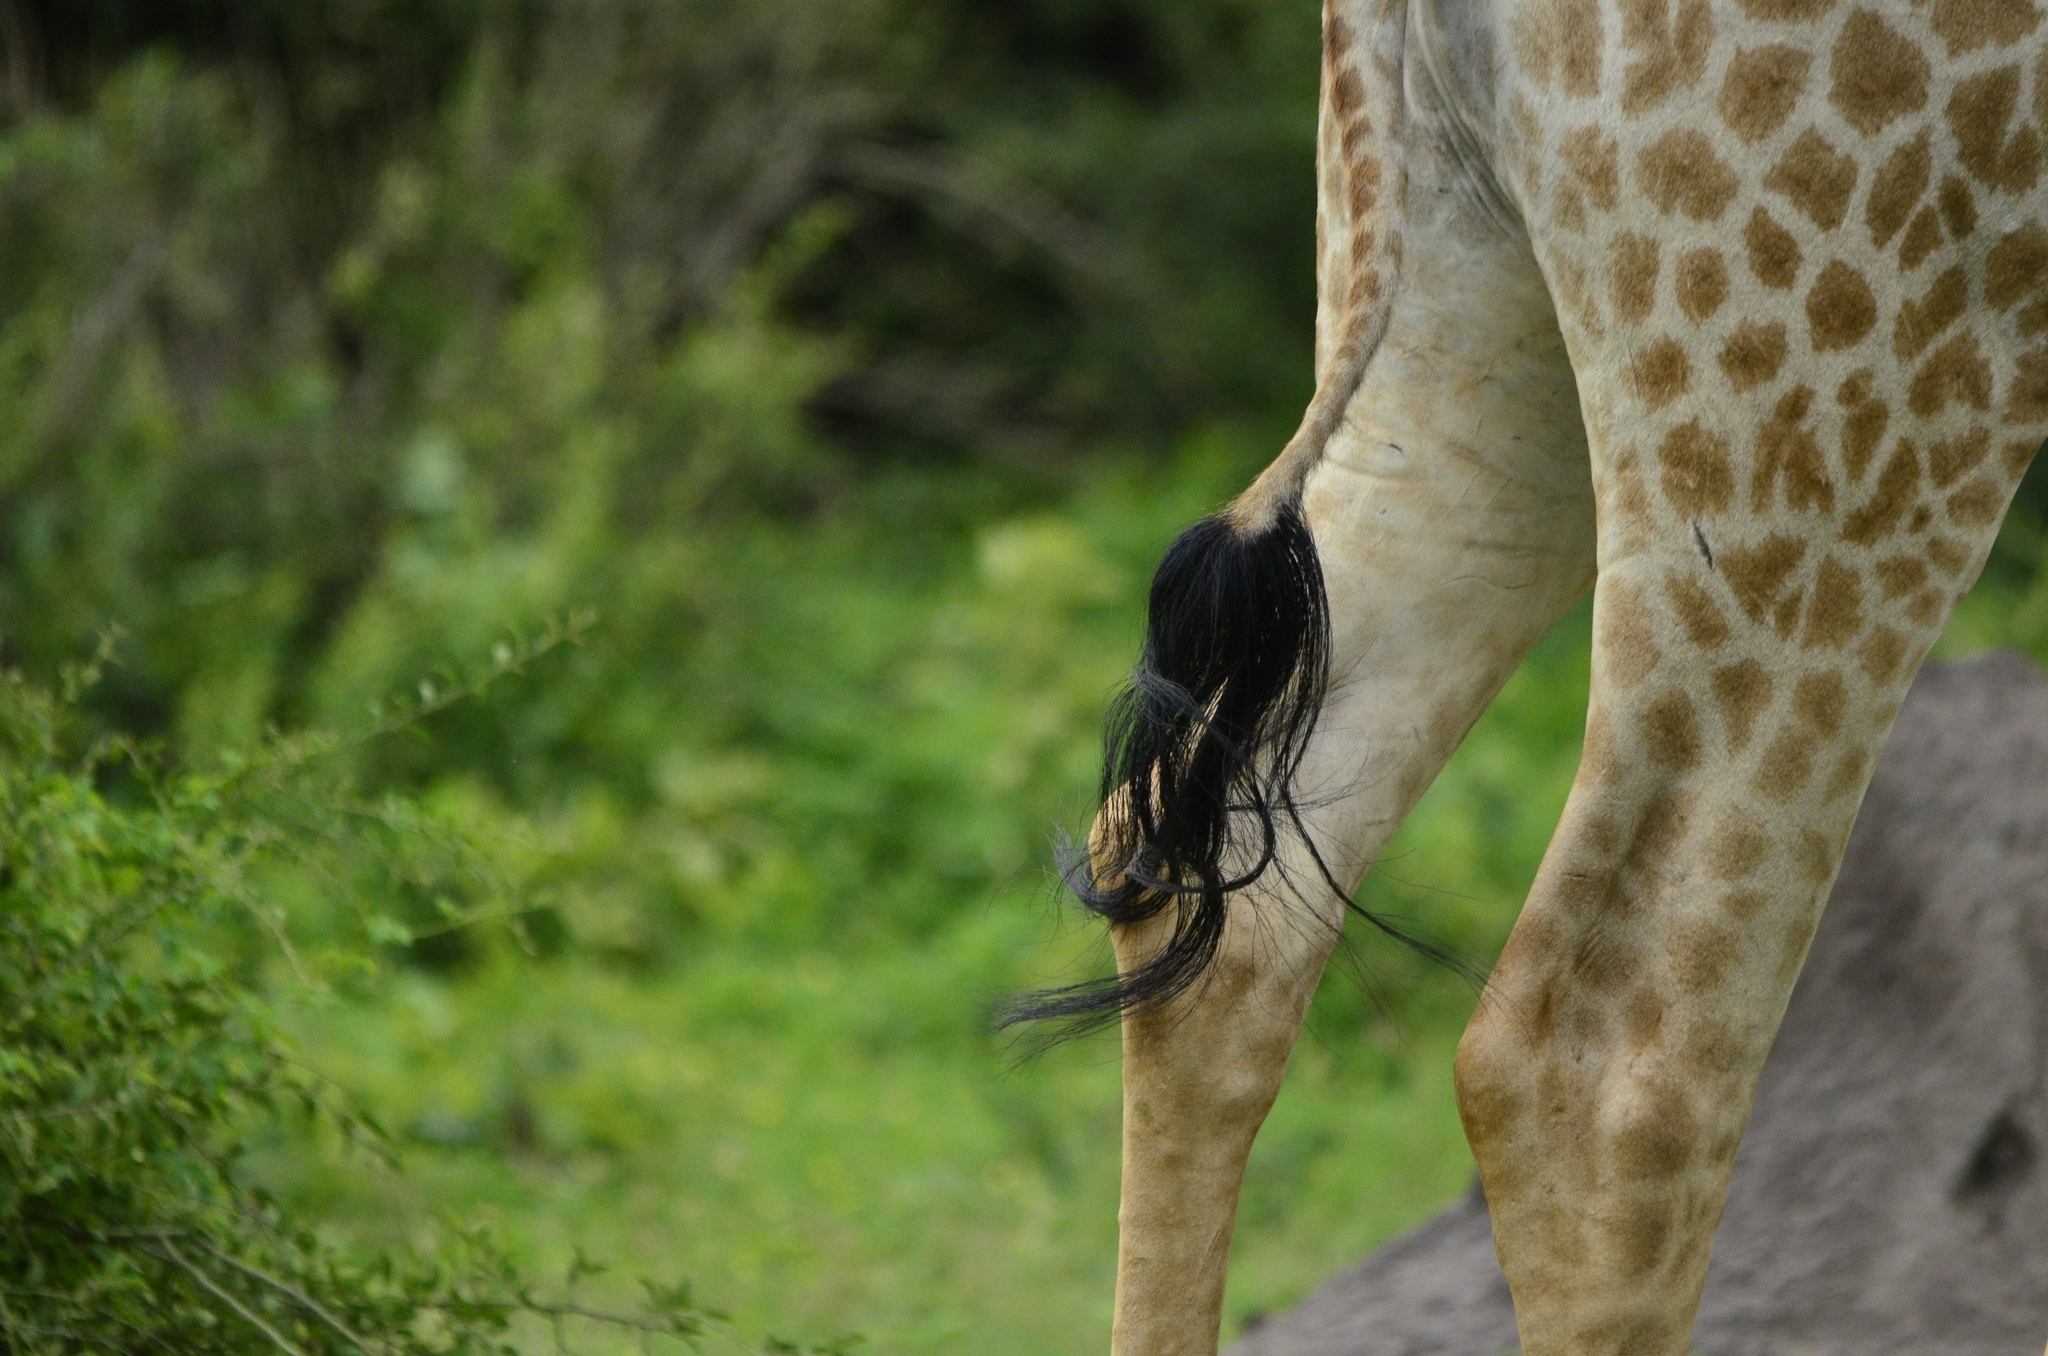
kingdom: Animalia
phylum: Chordata
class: Mammalia
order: Artiodactyla
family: Giraffidae
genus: Giraffa
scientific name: Giraffa giraffa
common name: Southern giraffe
